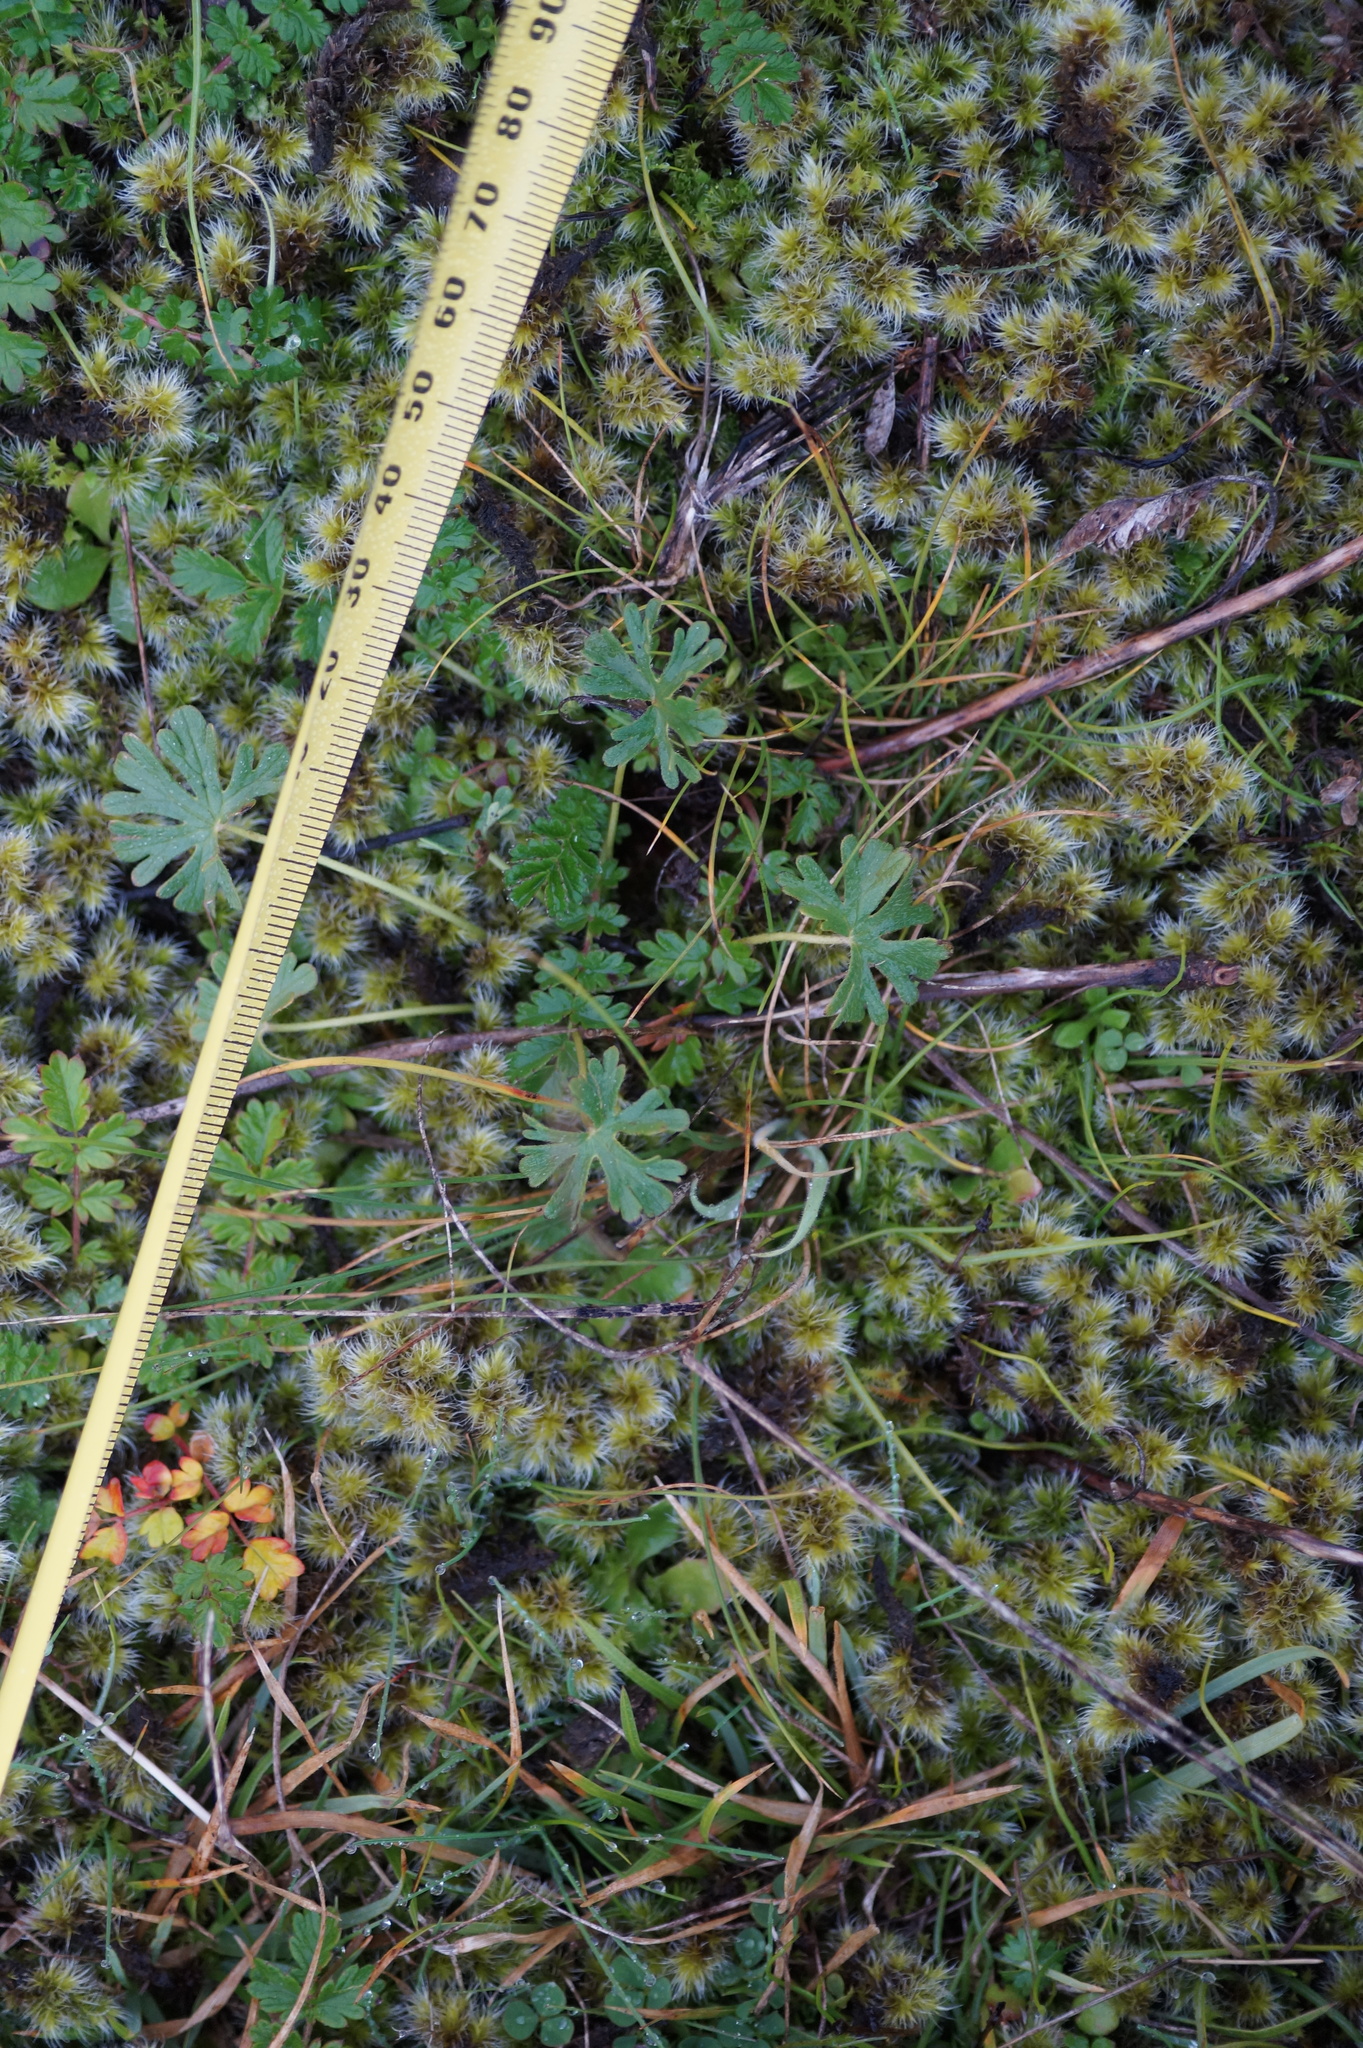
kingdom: Plantae
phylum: Tracheophyta
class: Magnoliopsida
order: Geraniales
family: Geraniaceae
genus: Geranium
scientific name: Geranium brevicaule
